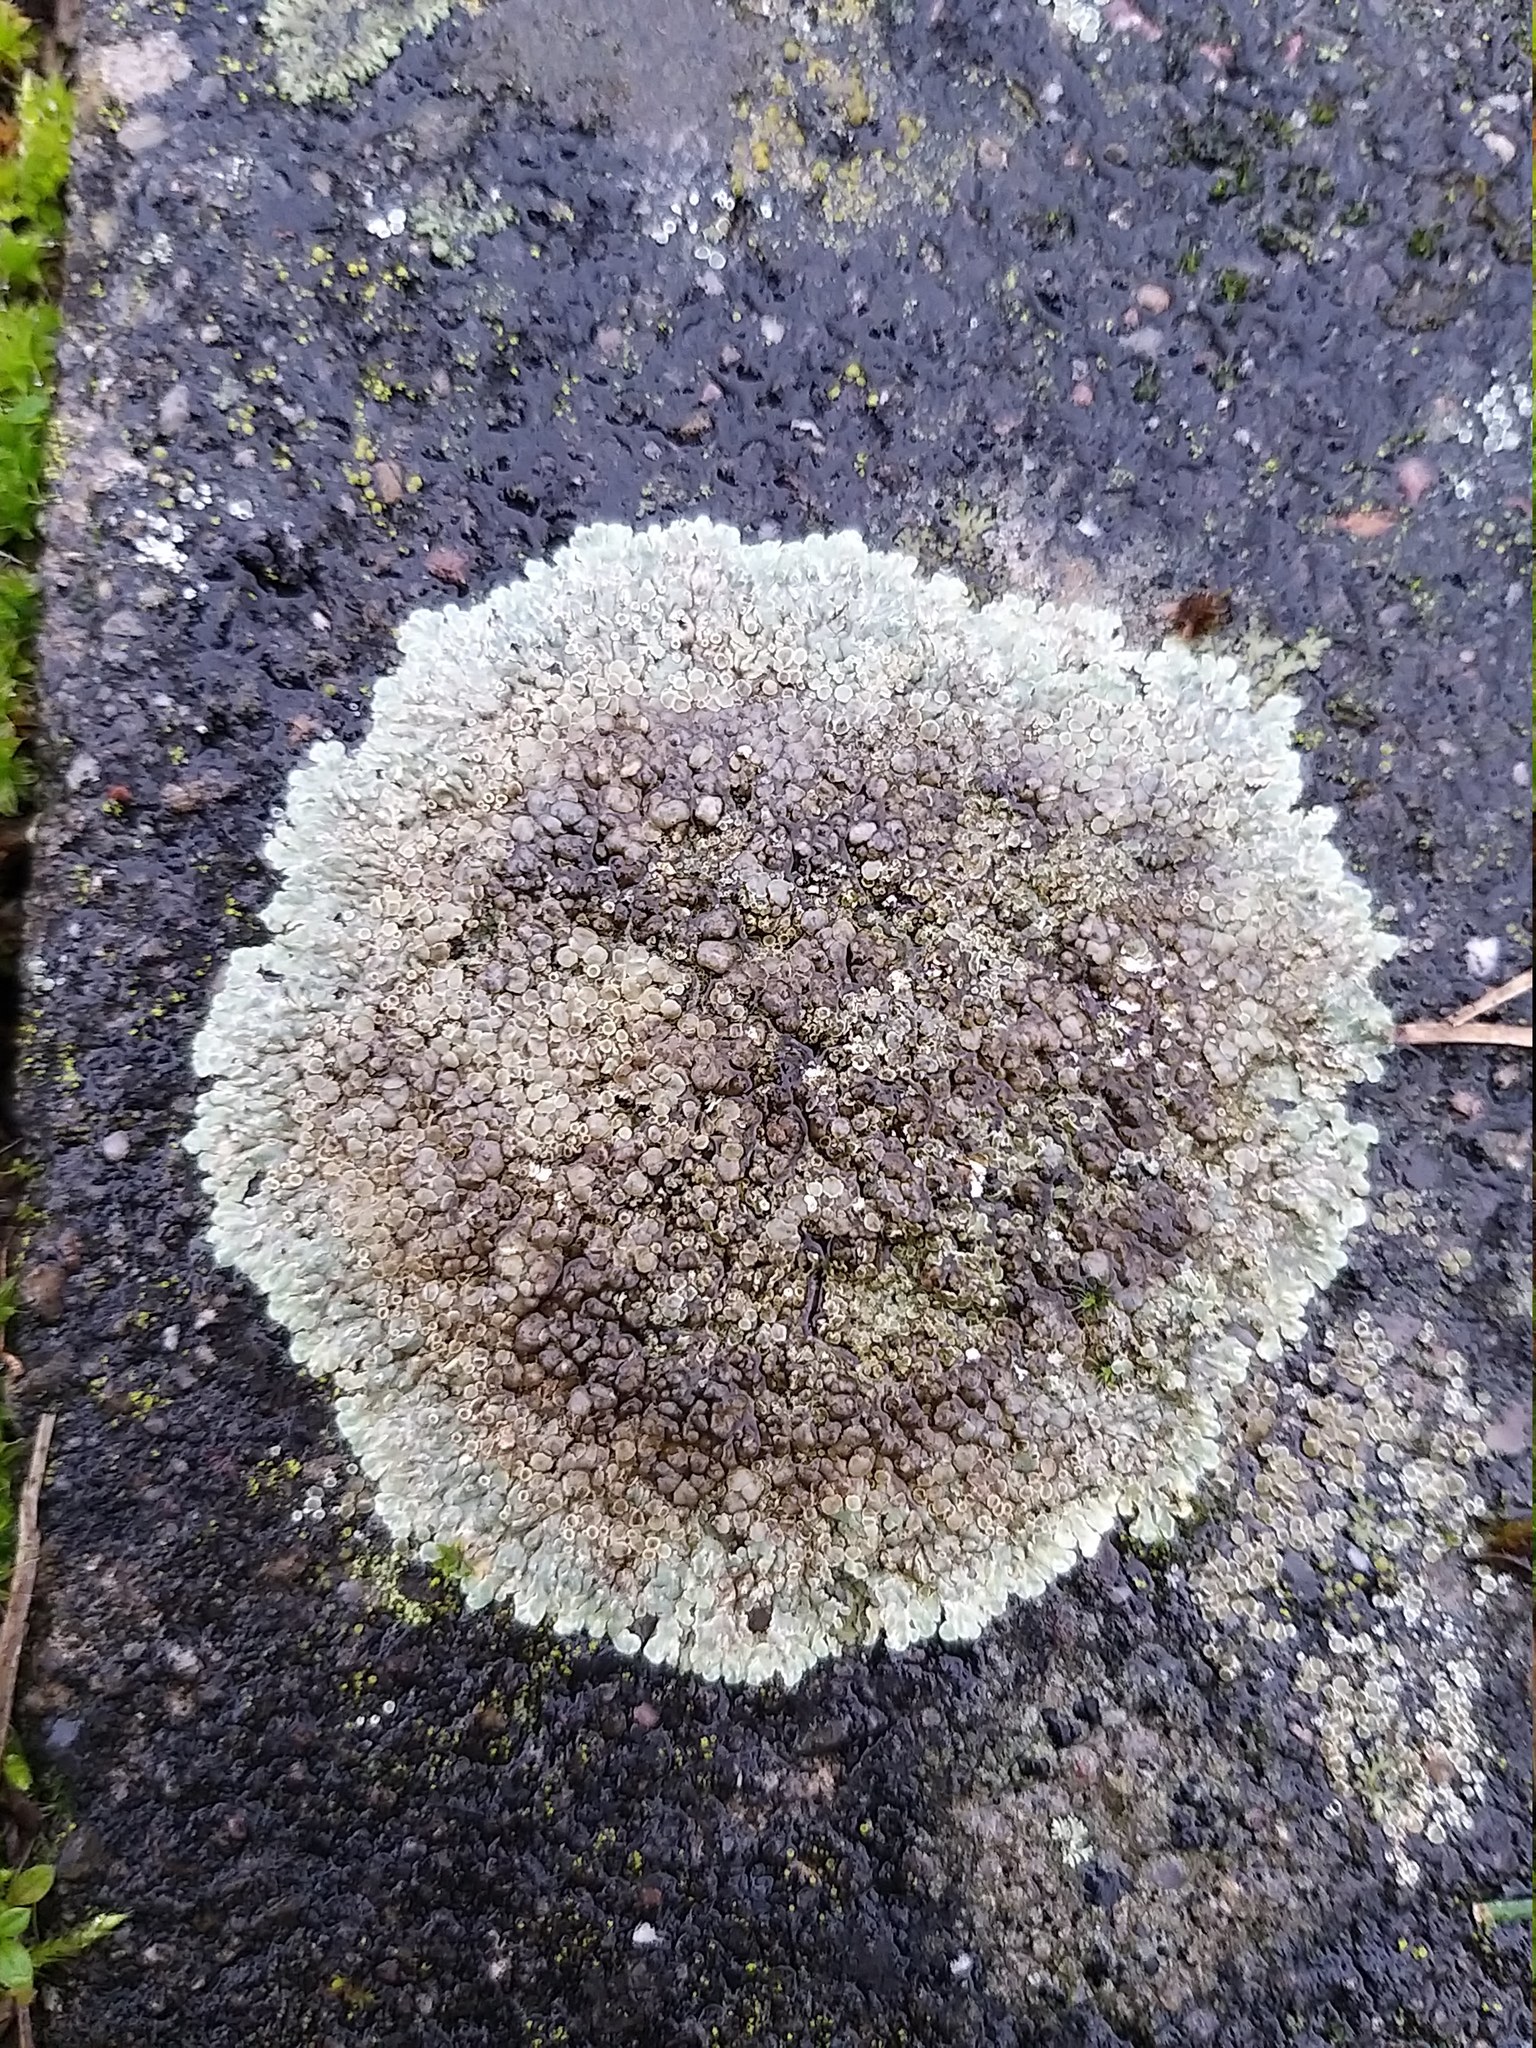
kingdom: Fungi
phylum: Ascomycota
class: Lecanoromycetes
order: Lecanorales
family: Lecanoraceae
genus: Protoparmeliopsis
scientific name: Protoparmeliopsis muralis
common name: Stonewall rim lichen
